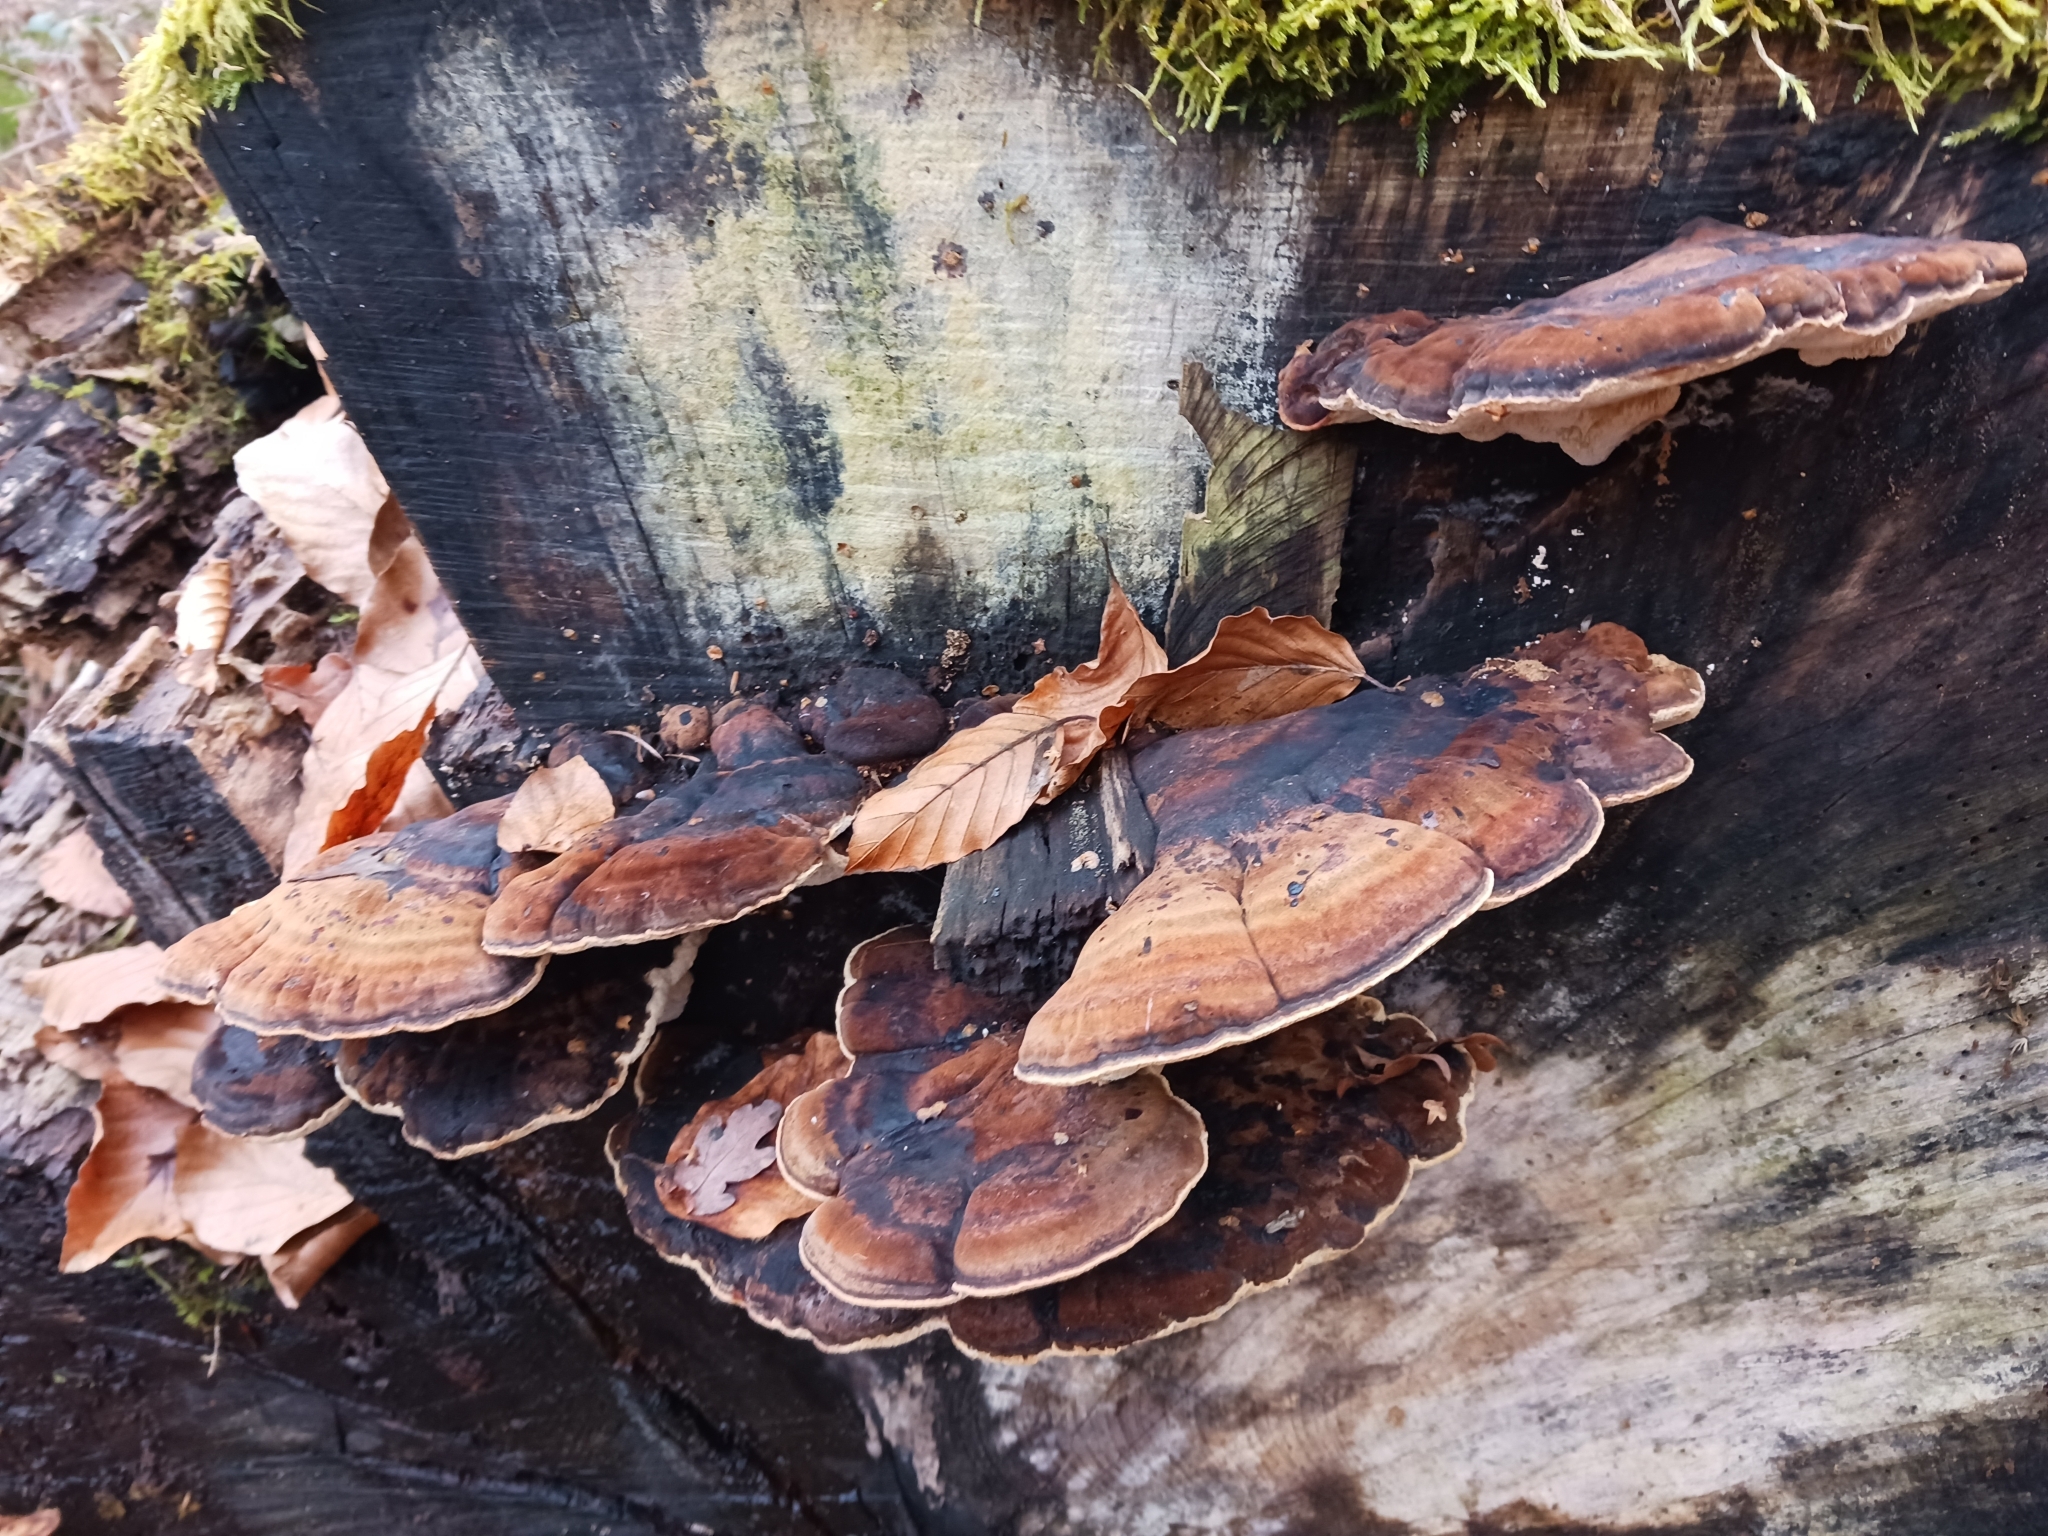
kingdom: Fungi
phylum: Basidiomycota
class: Agaricomycetes
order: Polyporales
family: Ischnodermataceae
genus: Ischnoderma
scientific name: Ischnoderma resinosum
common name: Resinous polypore
